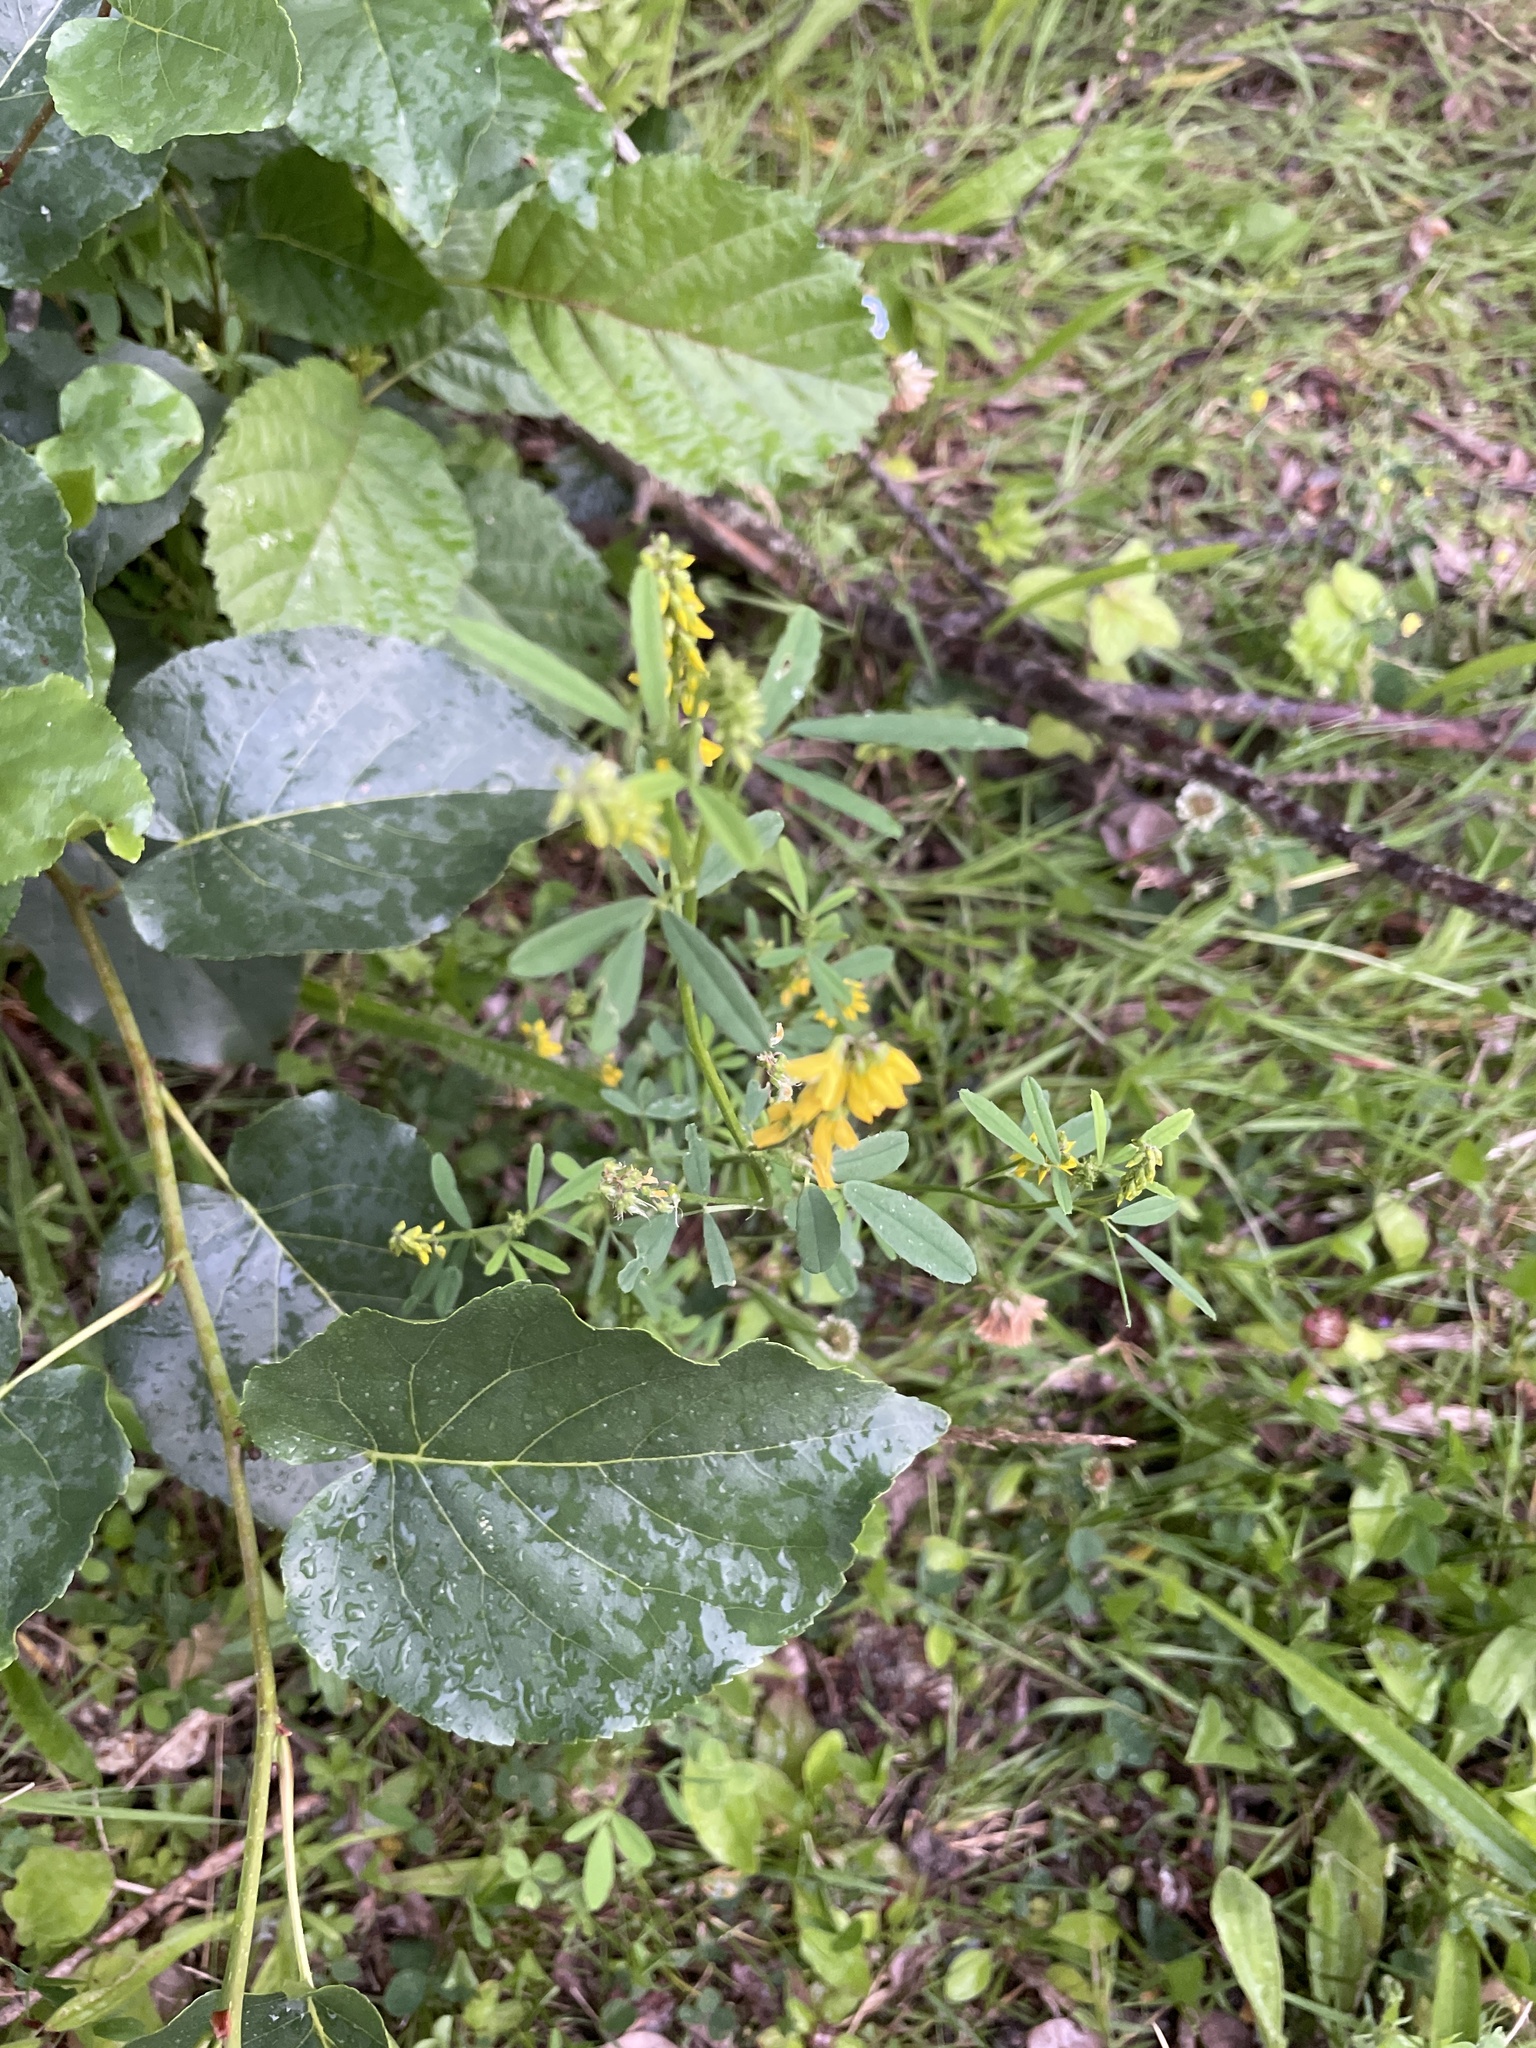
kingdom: Plantae
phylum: Tracheophyta
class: Magnoliopsida
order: Fabales
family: Fabaceae
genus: Melilotus
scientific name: Melilotus officinalis
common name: Sweetclover
